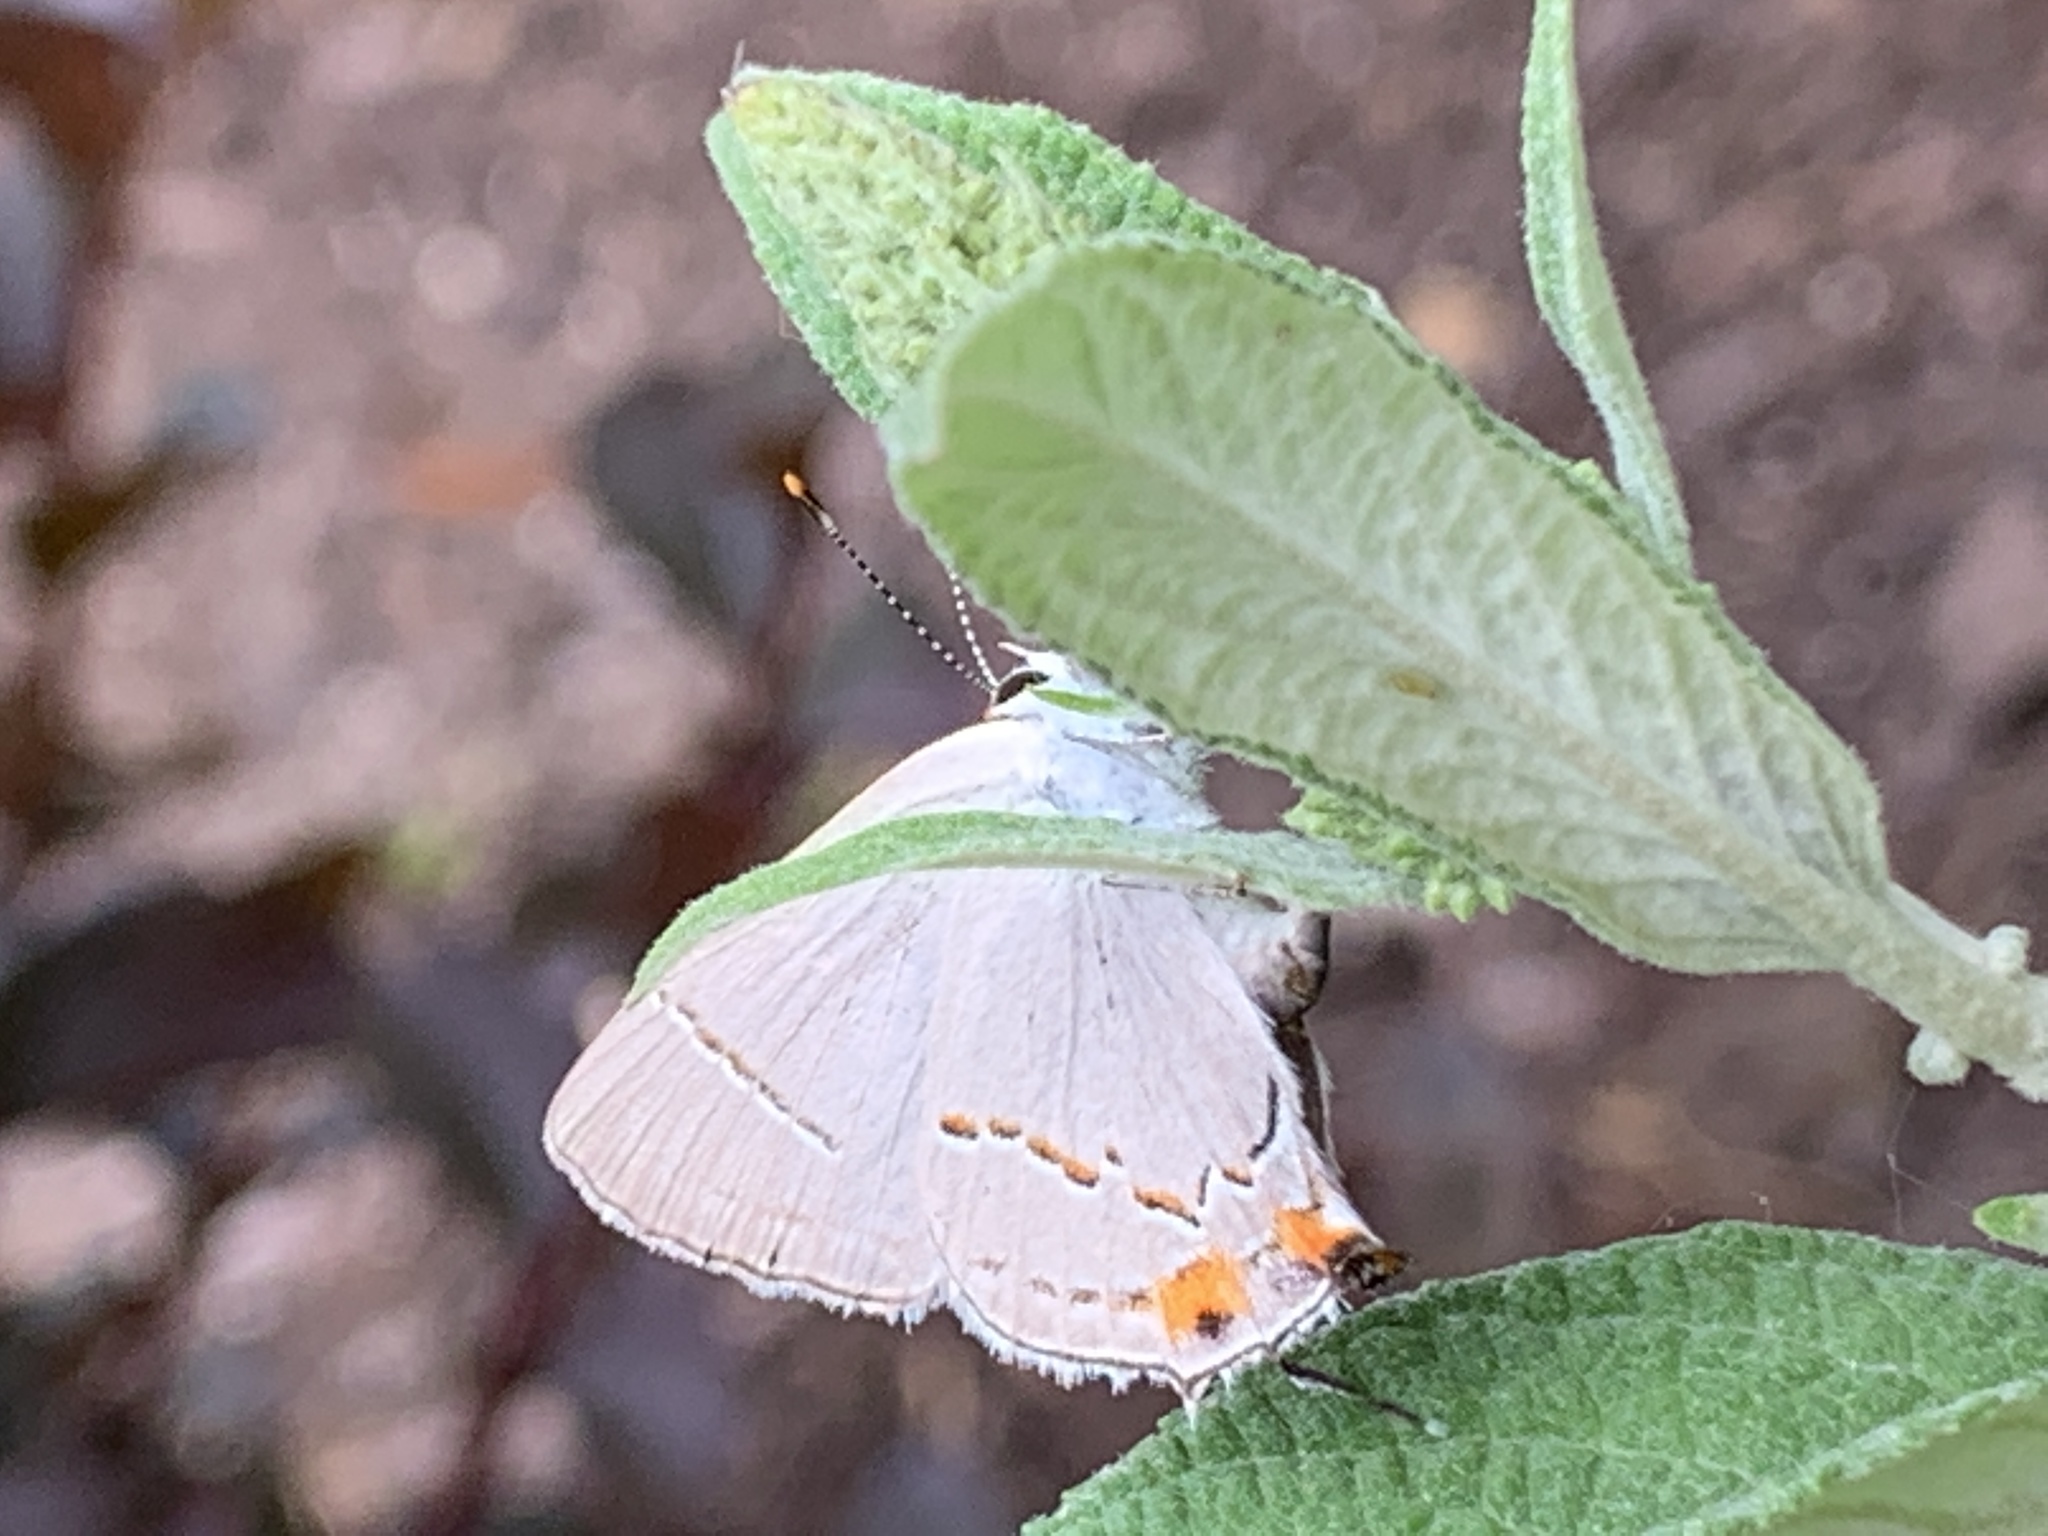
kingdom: Animalia
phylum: Arthropoda
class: Insecta
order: Lepidoptera
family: Lycaenidae
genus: Strymon
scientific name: Strymon melinus
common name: Gray hairstreak
